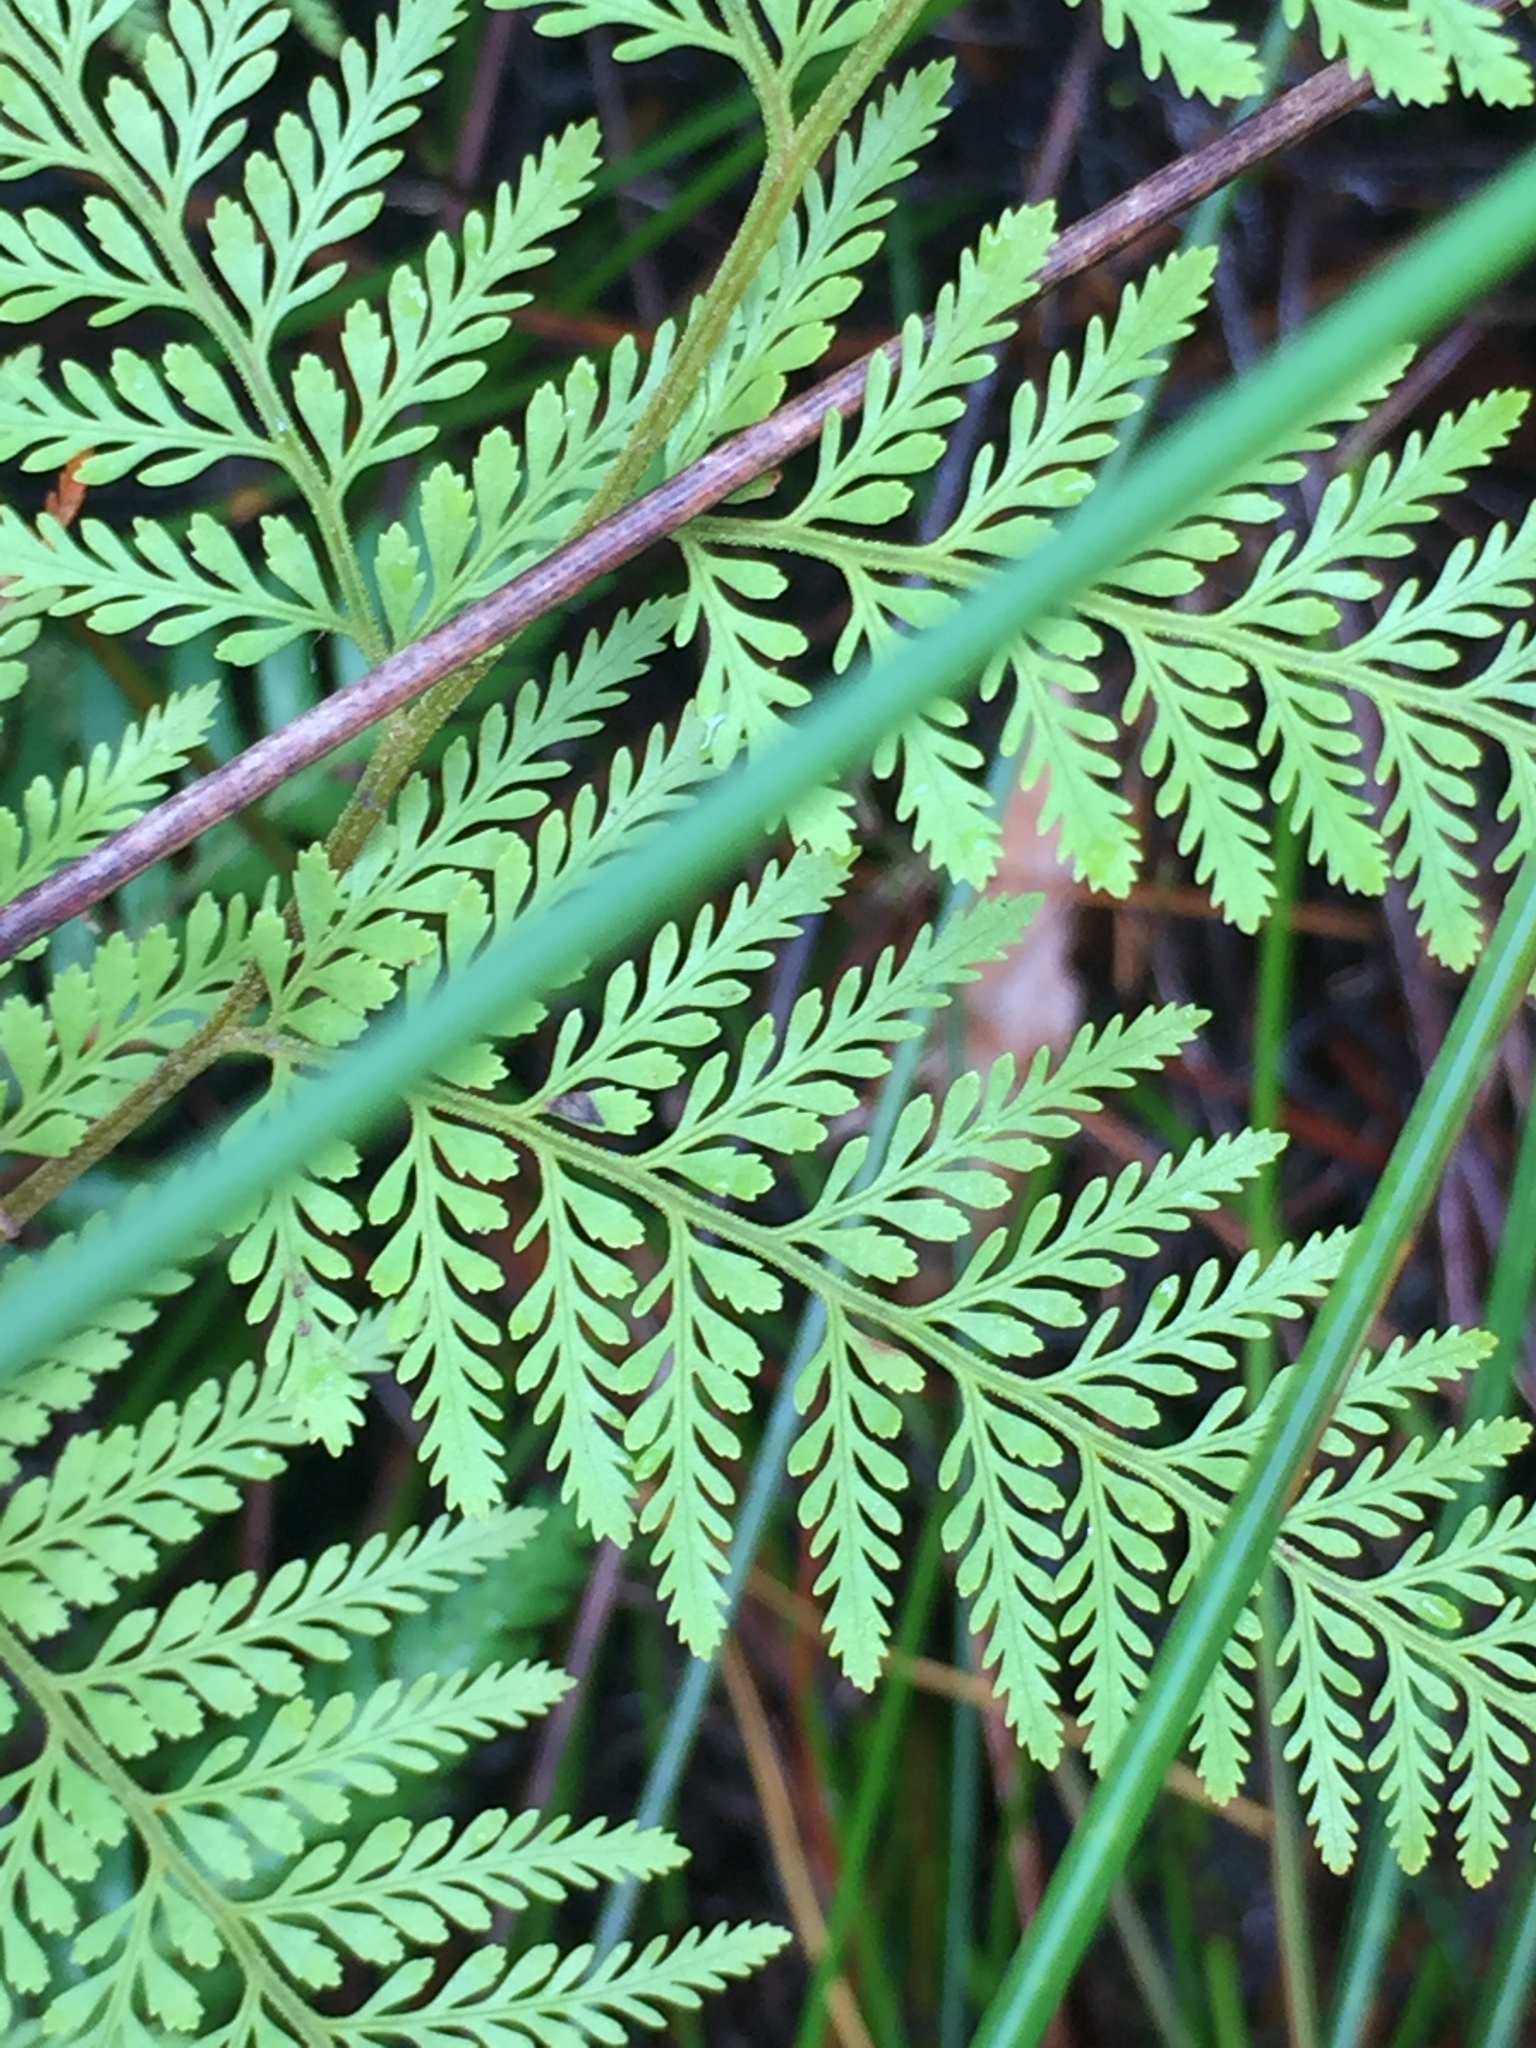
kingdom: Plantae
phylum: Tracheophyta
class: Polypodiopsida
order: Polypodiales
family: Dennstaedtiaceae
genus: Paesia
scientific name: Paesia scaberula
